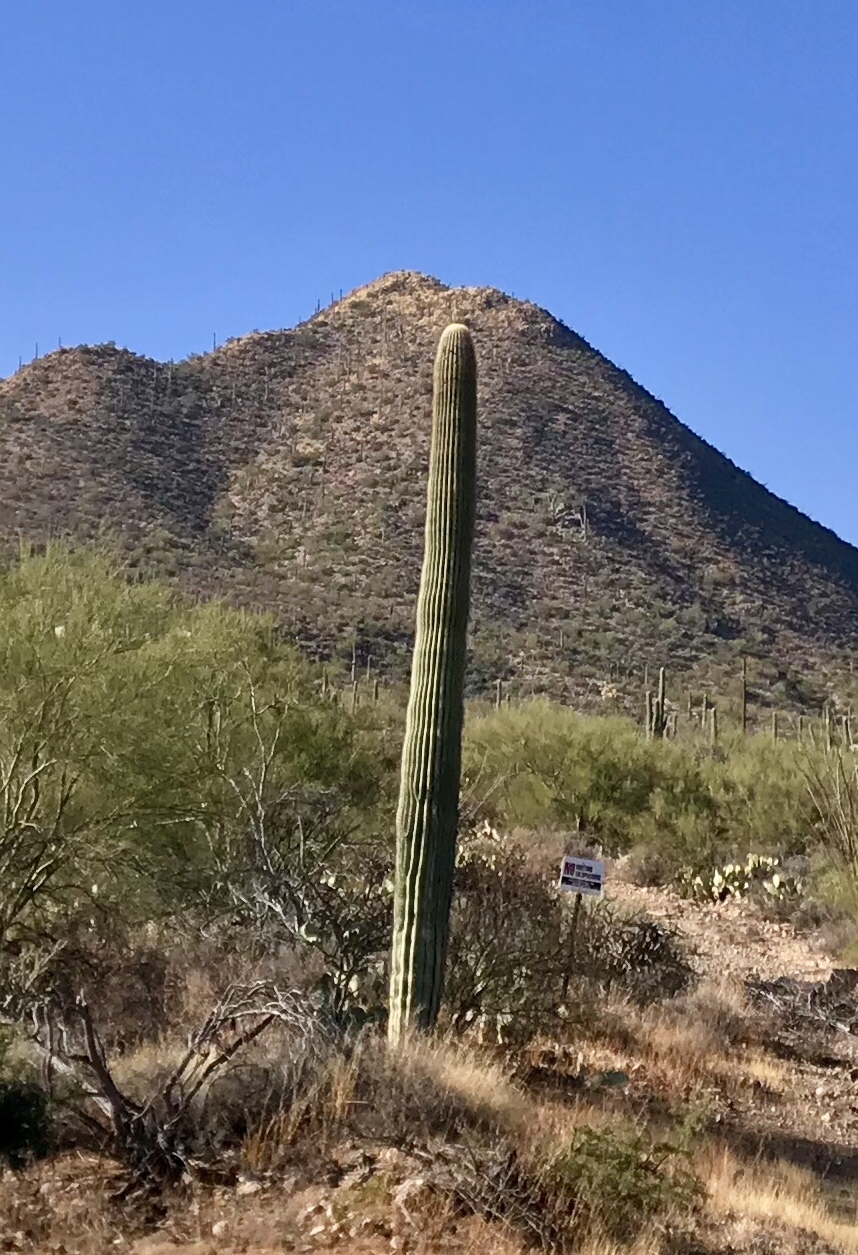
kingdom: Plantae
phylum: Tracheophyta
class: Magnoliopsida
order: Caryophyllales
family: Cactaceae
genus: Carnegiea
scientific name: Carnegiea gigantea
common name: Saguaro
